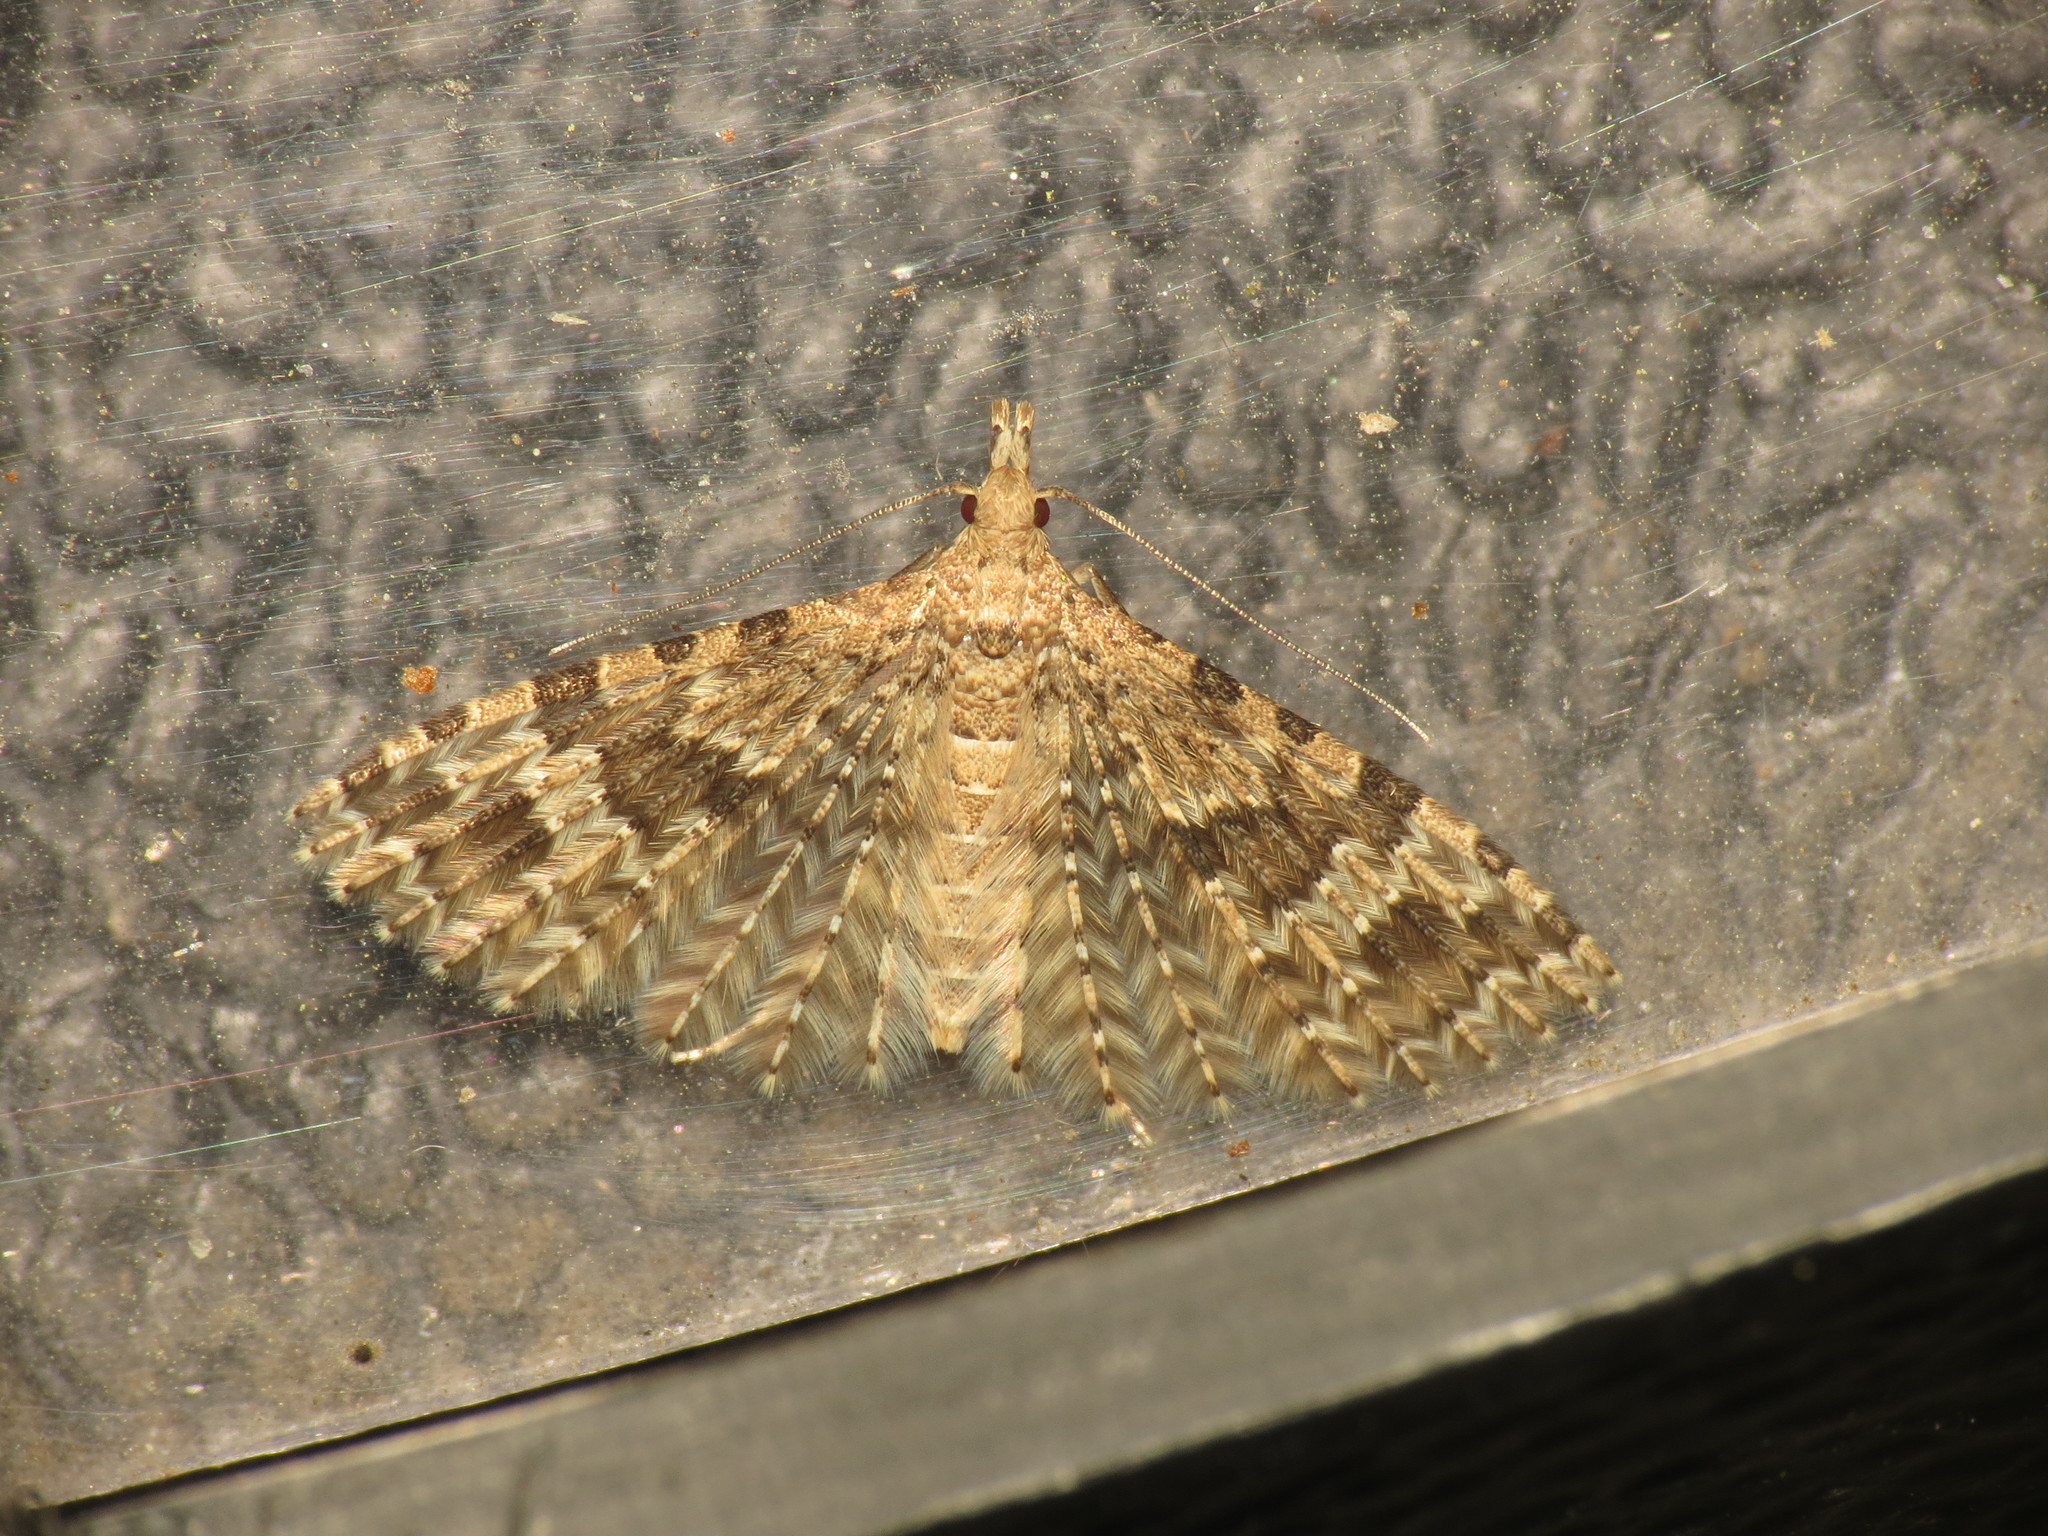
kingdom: Animalia
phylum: Arthropoda
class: Insecta
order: Lepidoptera
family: Alucitidae
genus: Alucita
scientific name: Alucita hexadactyla
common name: Twenty-plume moth
